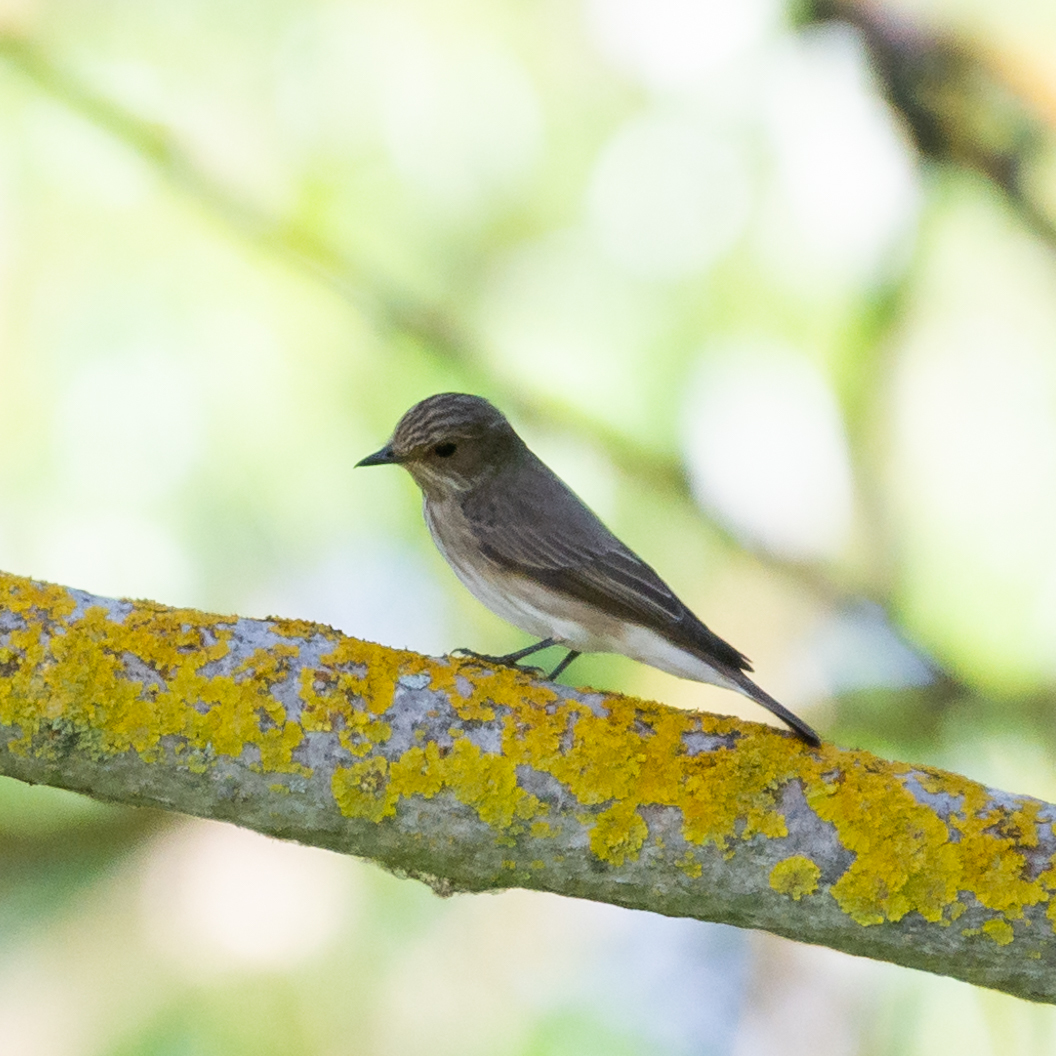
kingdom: Animalia
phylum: Chordata
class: Aves
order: Passeriformes
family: Muscicapidae
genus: Muscicapa
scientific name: Muscicapa striata
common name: Spotted flycatcher
